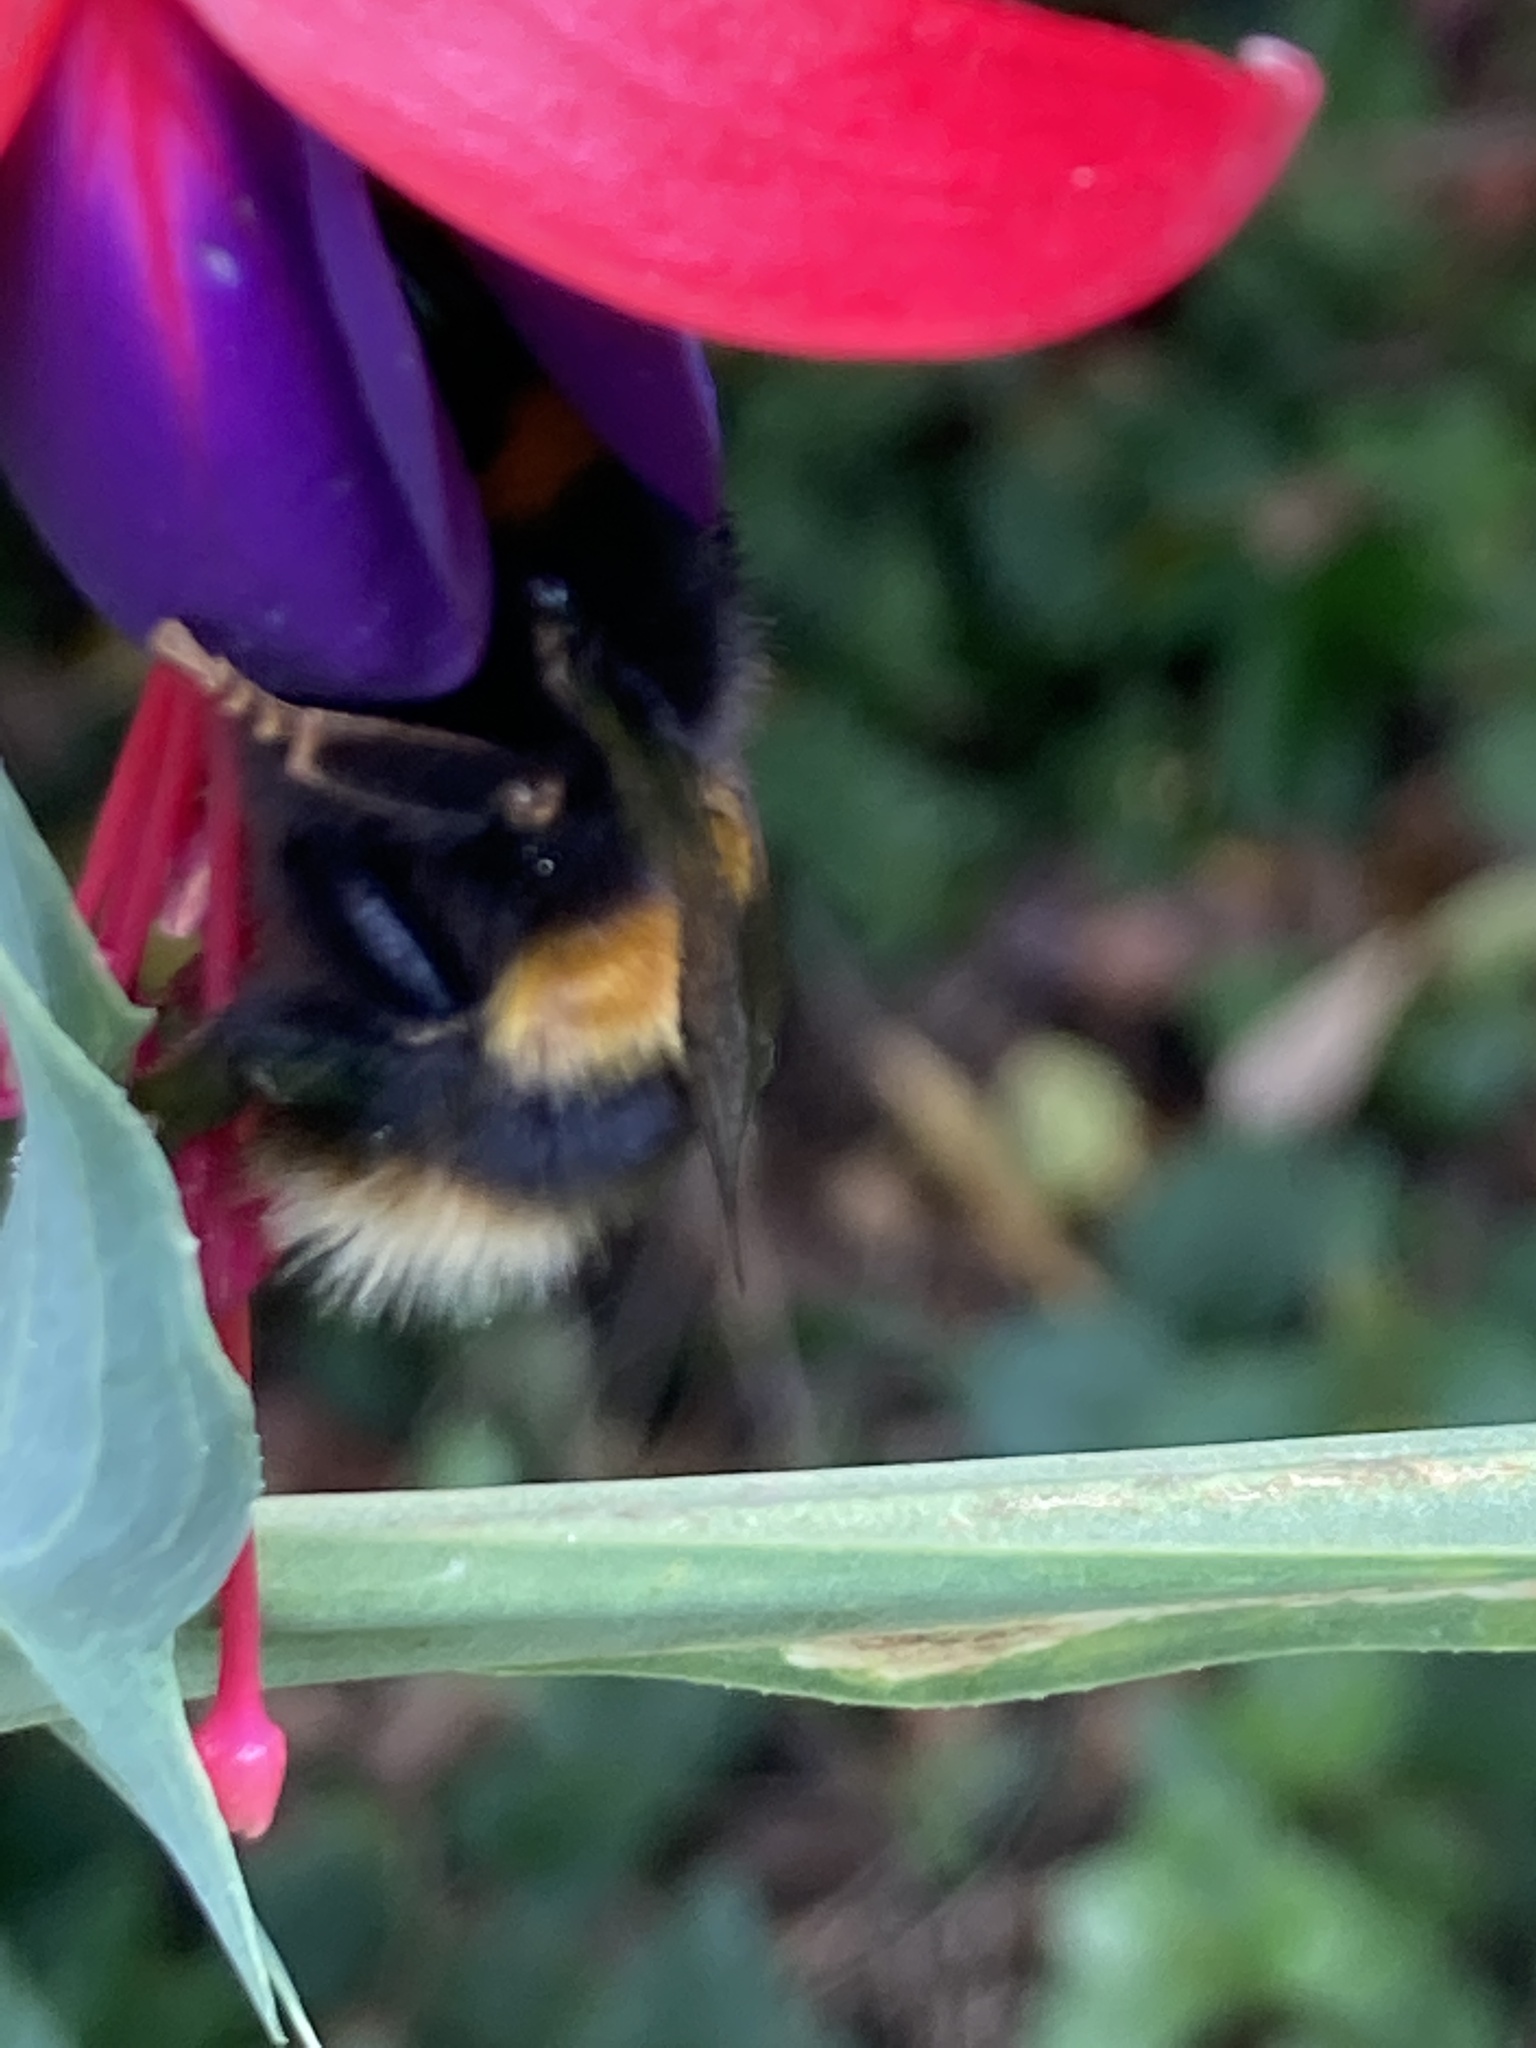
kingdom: Animalia
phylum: Arthropoda
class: Insecta
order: Hymenoptera
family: Apidae
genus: Bombus
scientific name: Bombus terrestris
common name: Buff-tailed bumblebee
